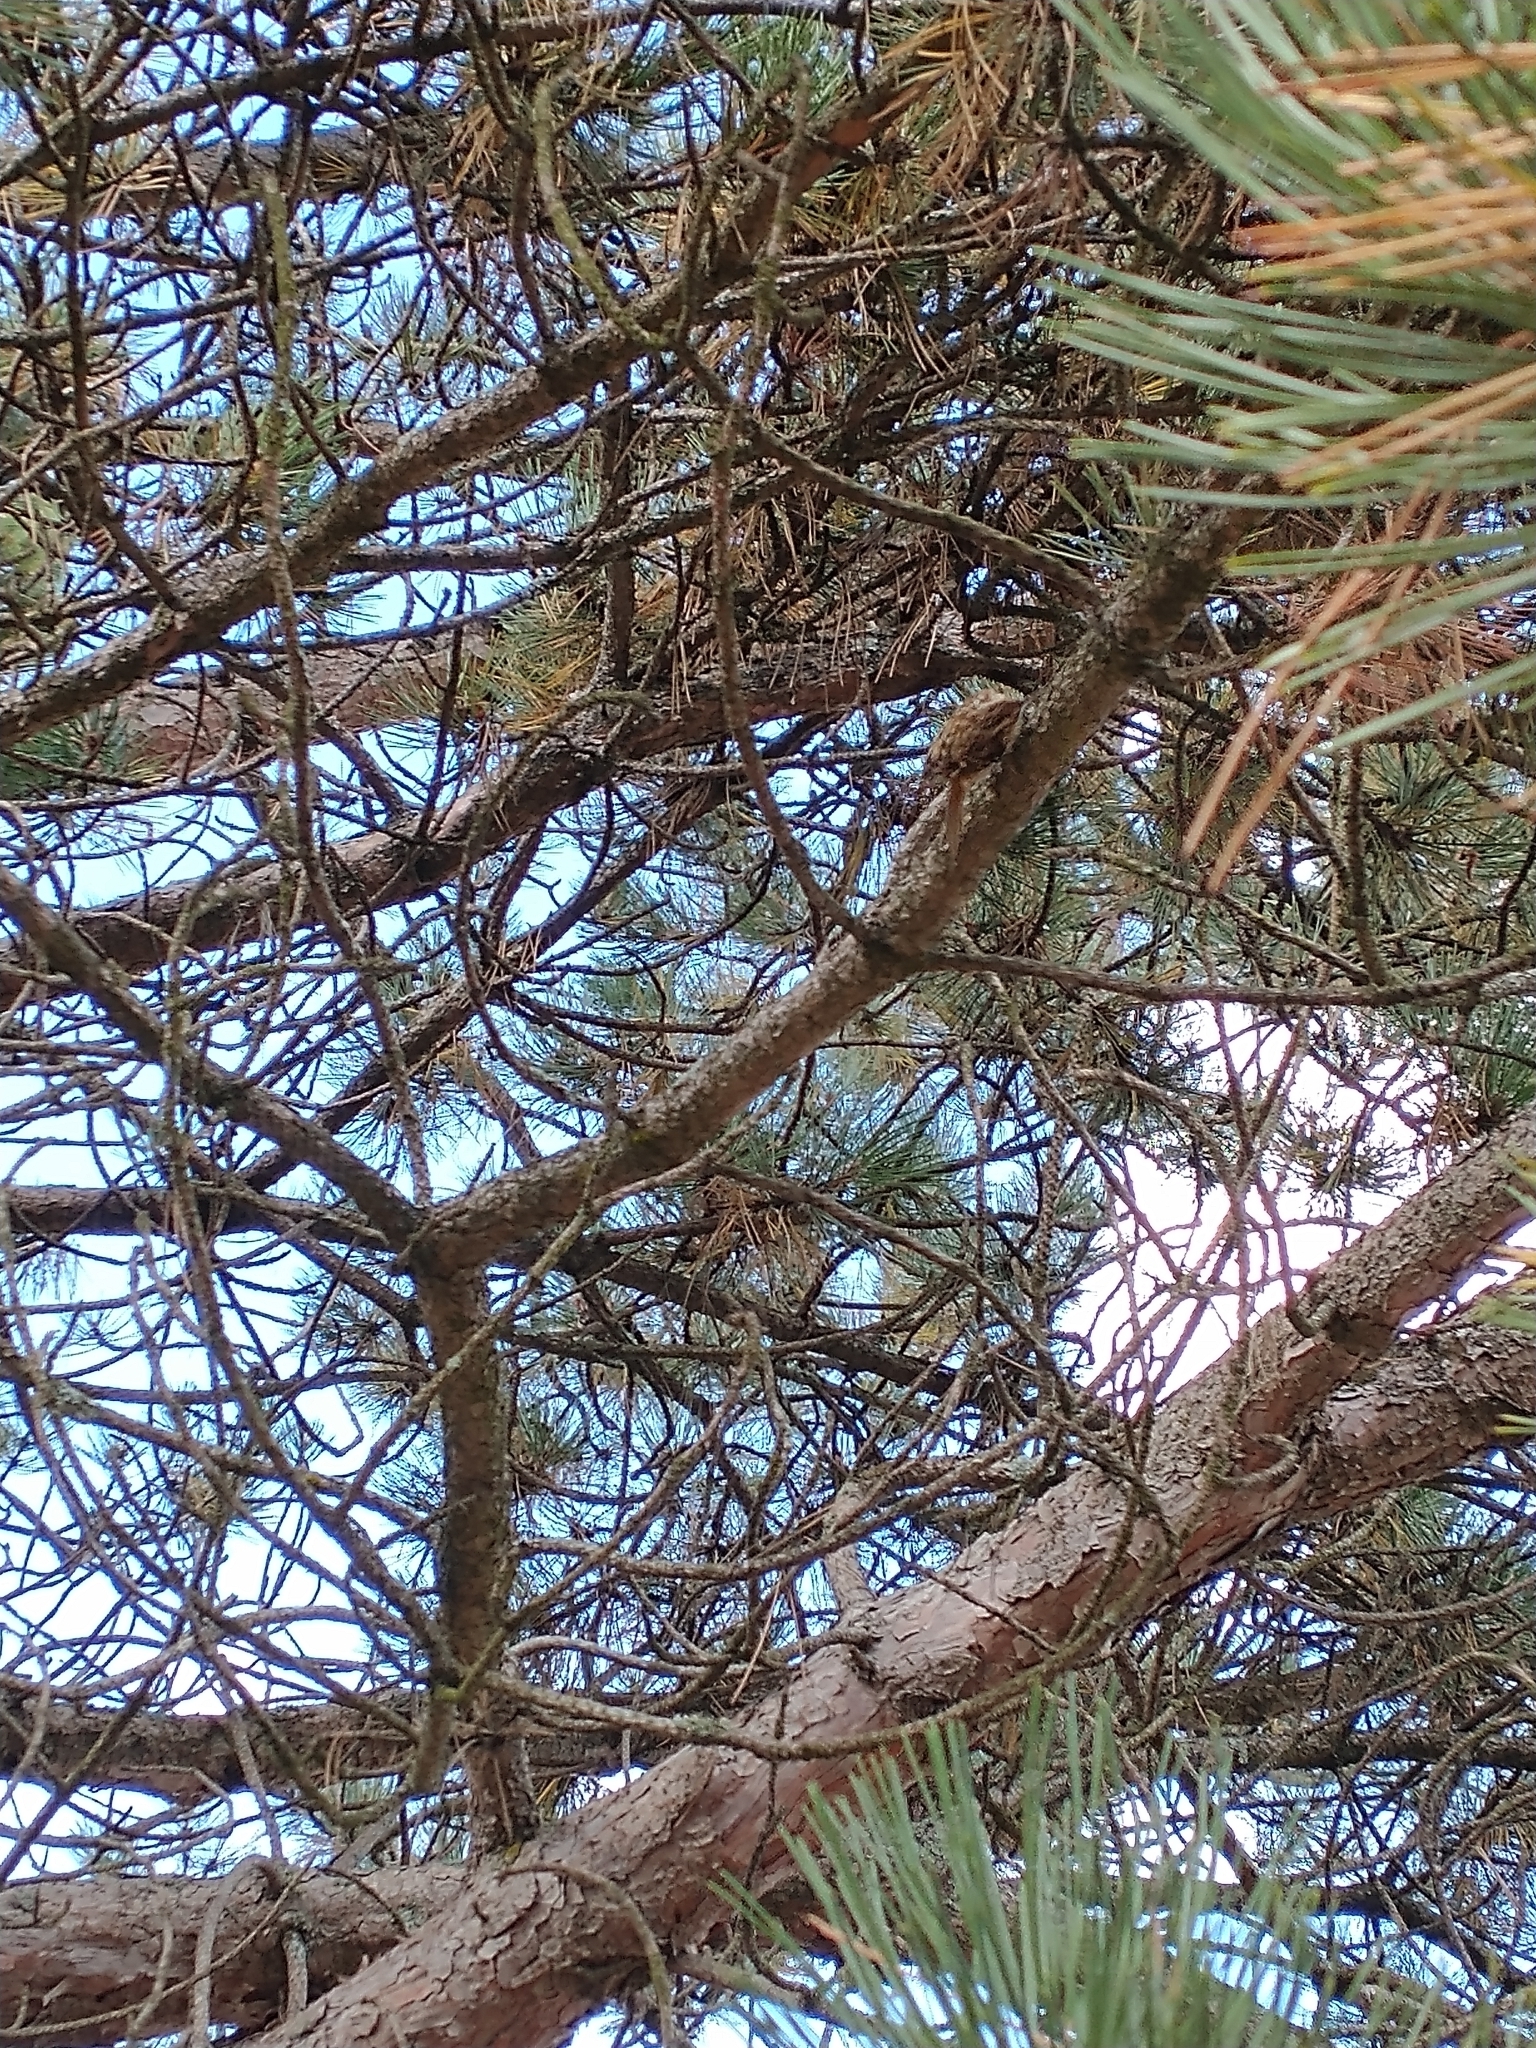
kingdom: Animalia
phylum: Chordata
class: Aves
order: Passeriformes
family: Certhiidae
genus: Certhia
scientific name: Certhia americana
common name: Brown creeper
